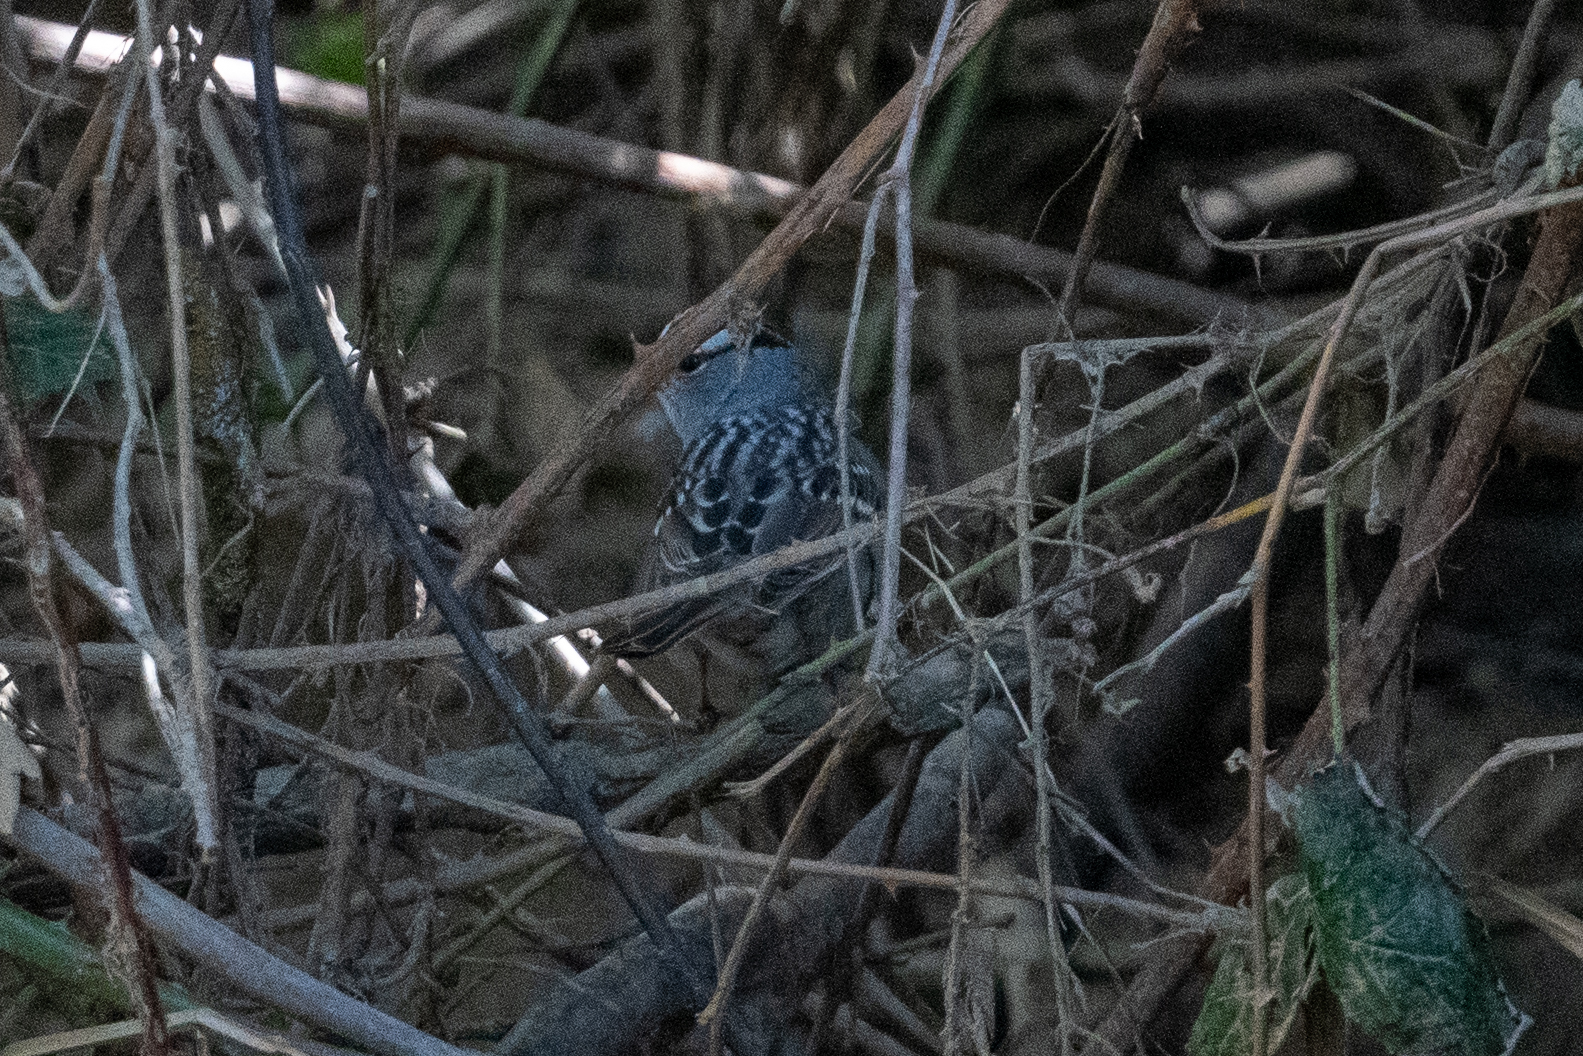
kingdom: Animalia
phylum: Chordata
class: Aves
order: Passeriformes
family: Passerellidae
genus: Zonotrichia
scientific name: Zonotrichia leucophrys
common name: White-crowned sparrow
